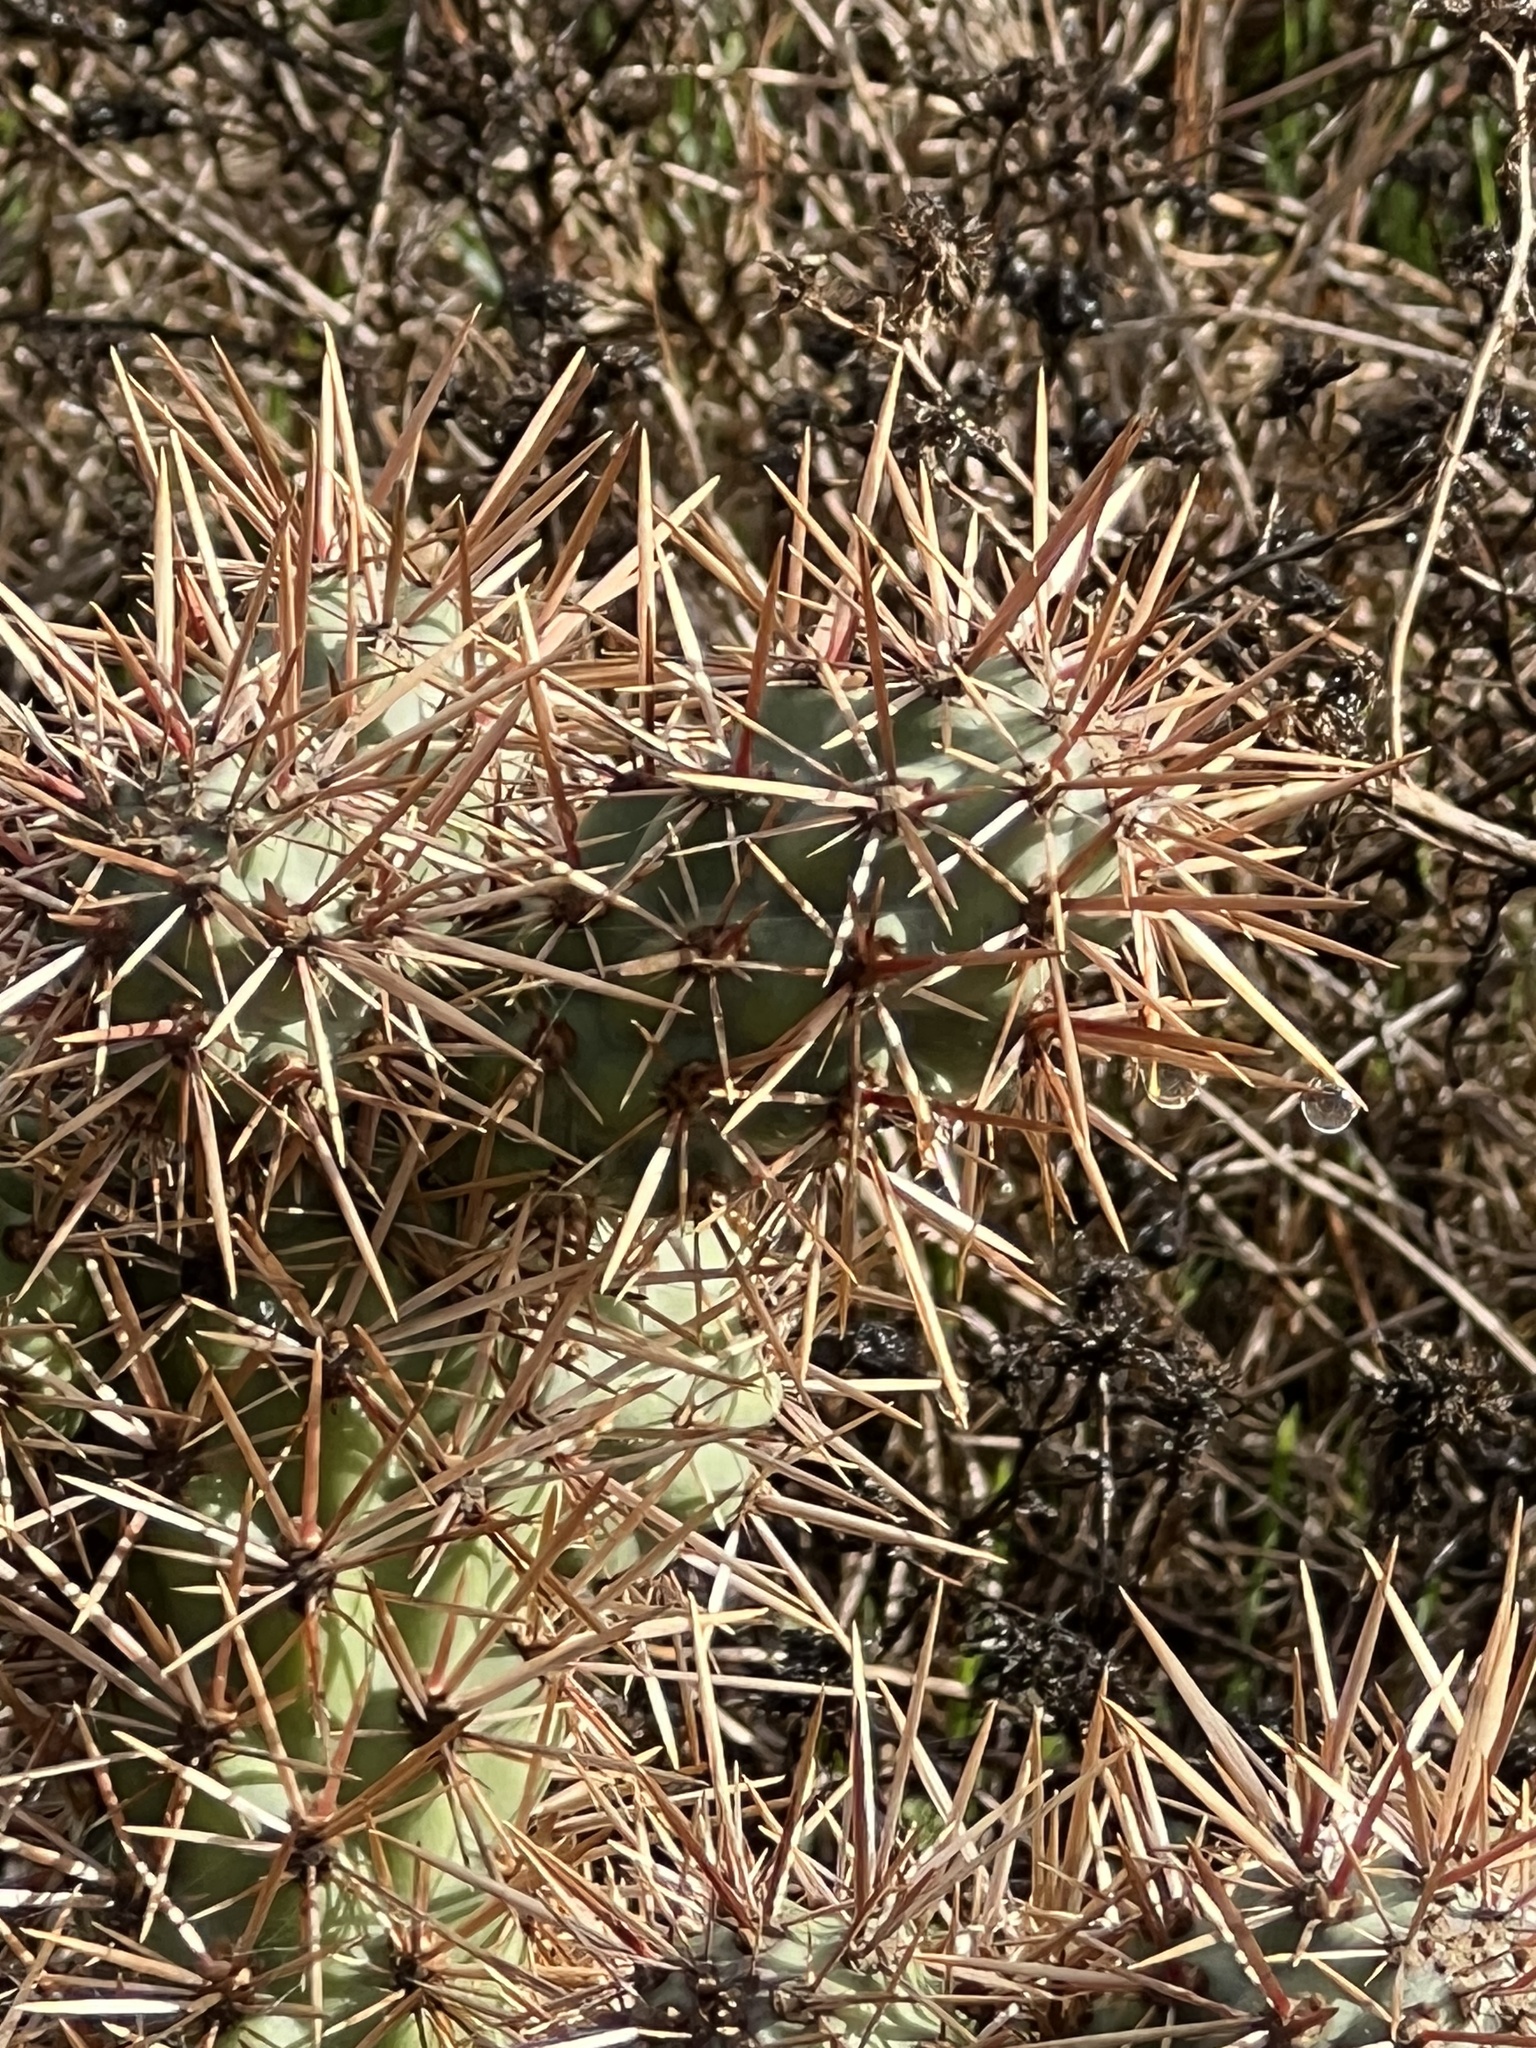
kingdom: Plantae
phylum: Tracheophyta
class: Magnoliopsida
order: Caryophyllales
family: Cactaceae
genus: Cylindropuntia
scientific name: Cylindropuntia prolifera
